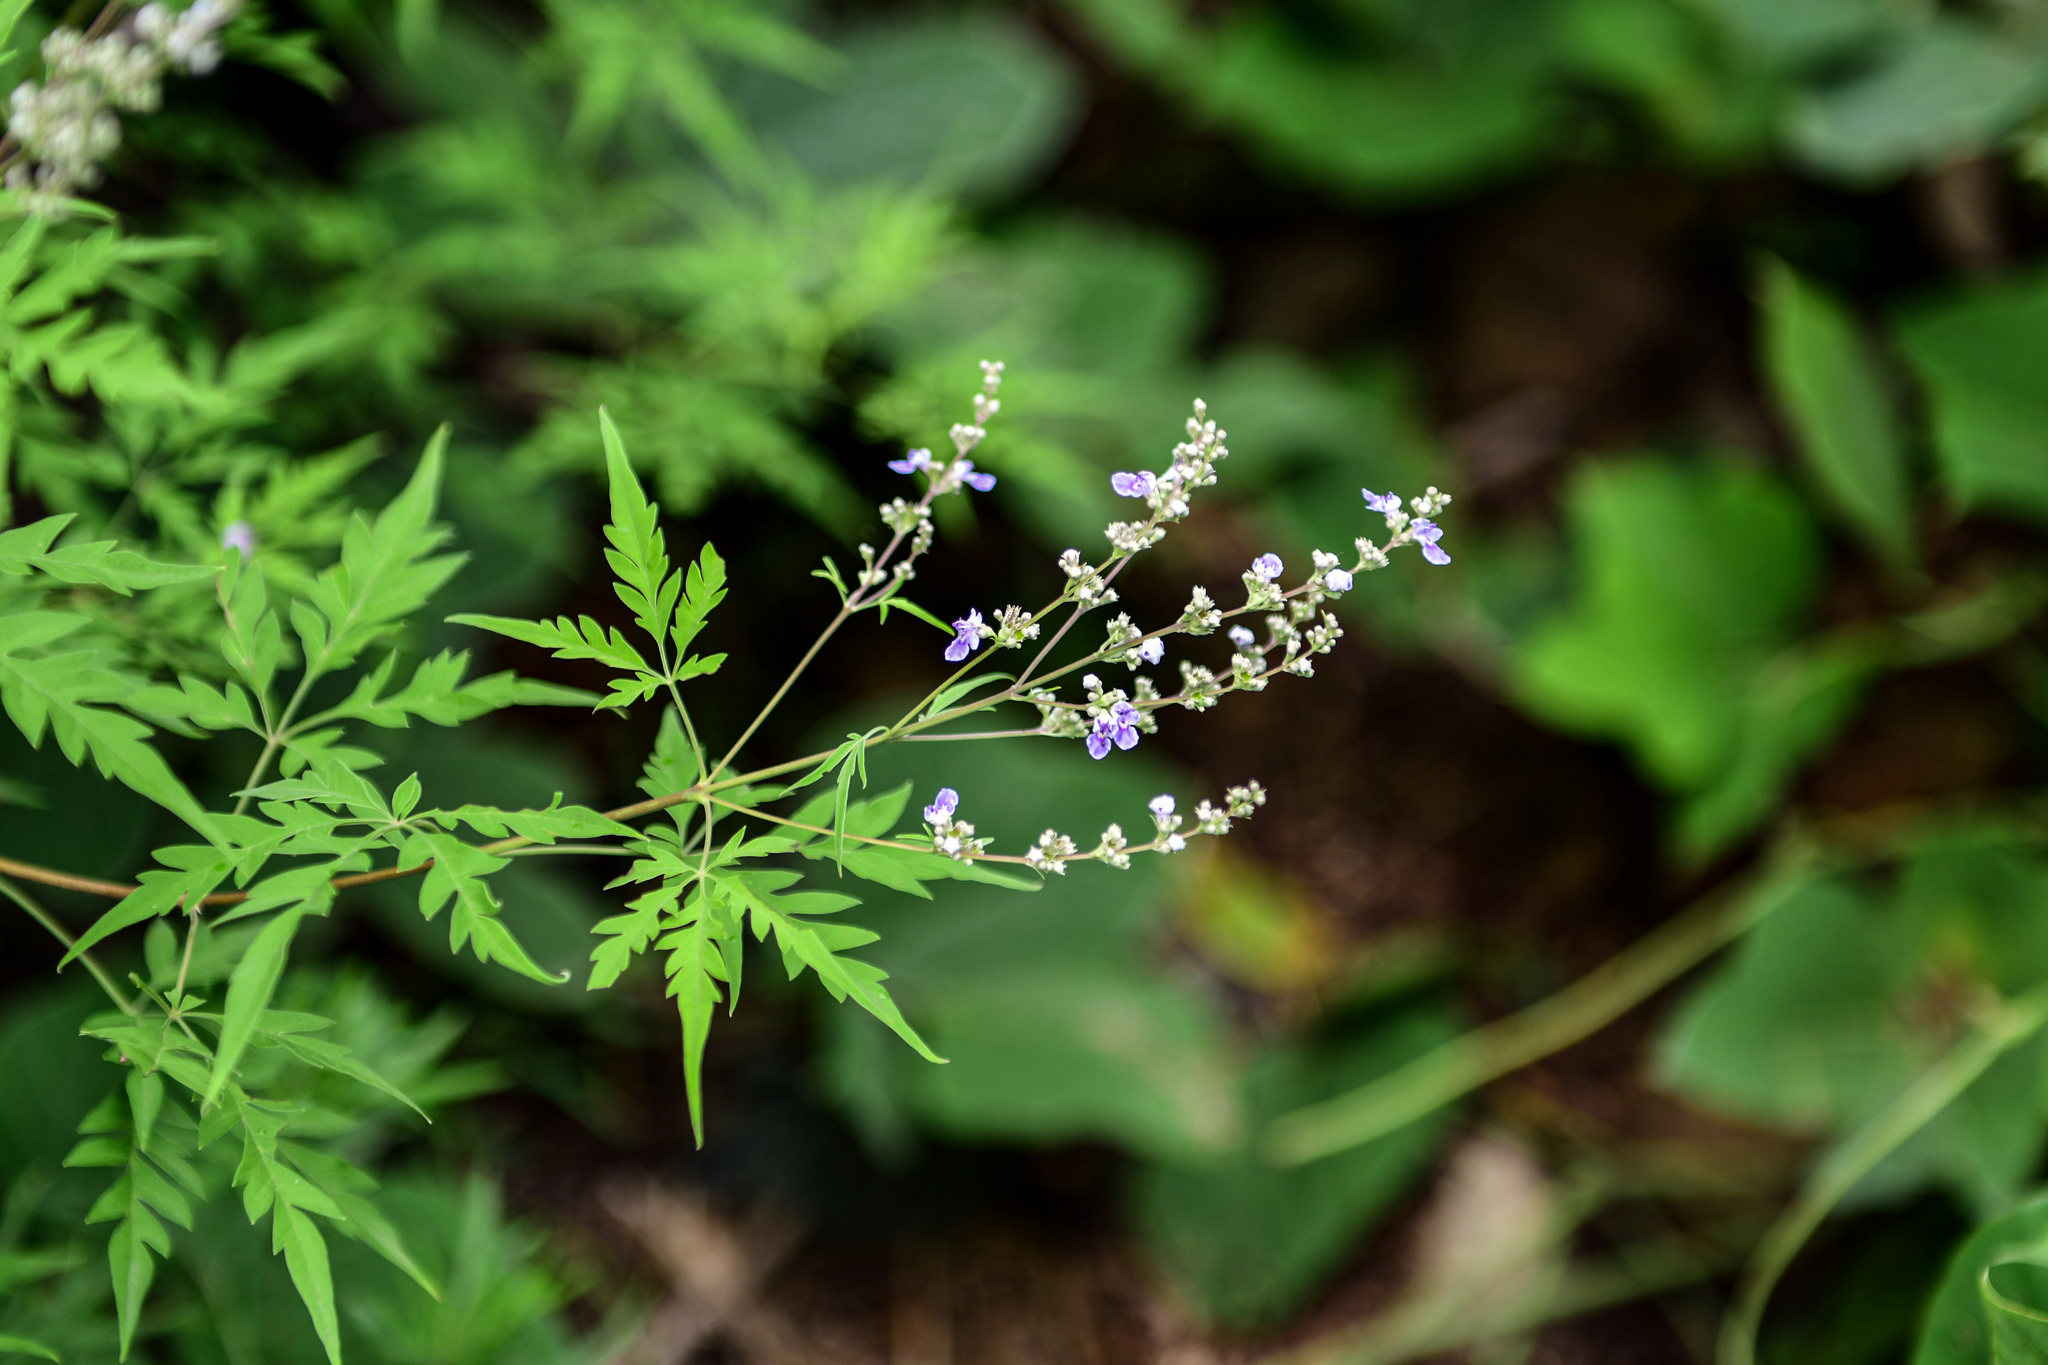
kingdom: Plantae
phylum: Tracheophyta
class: Magnoliopsida
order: Lamiales
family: Lamiaceae
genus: Vitex
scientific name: Vitex negundo
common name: Chinese chastetree
